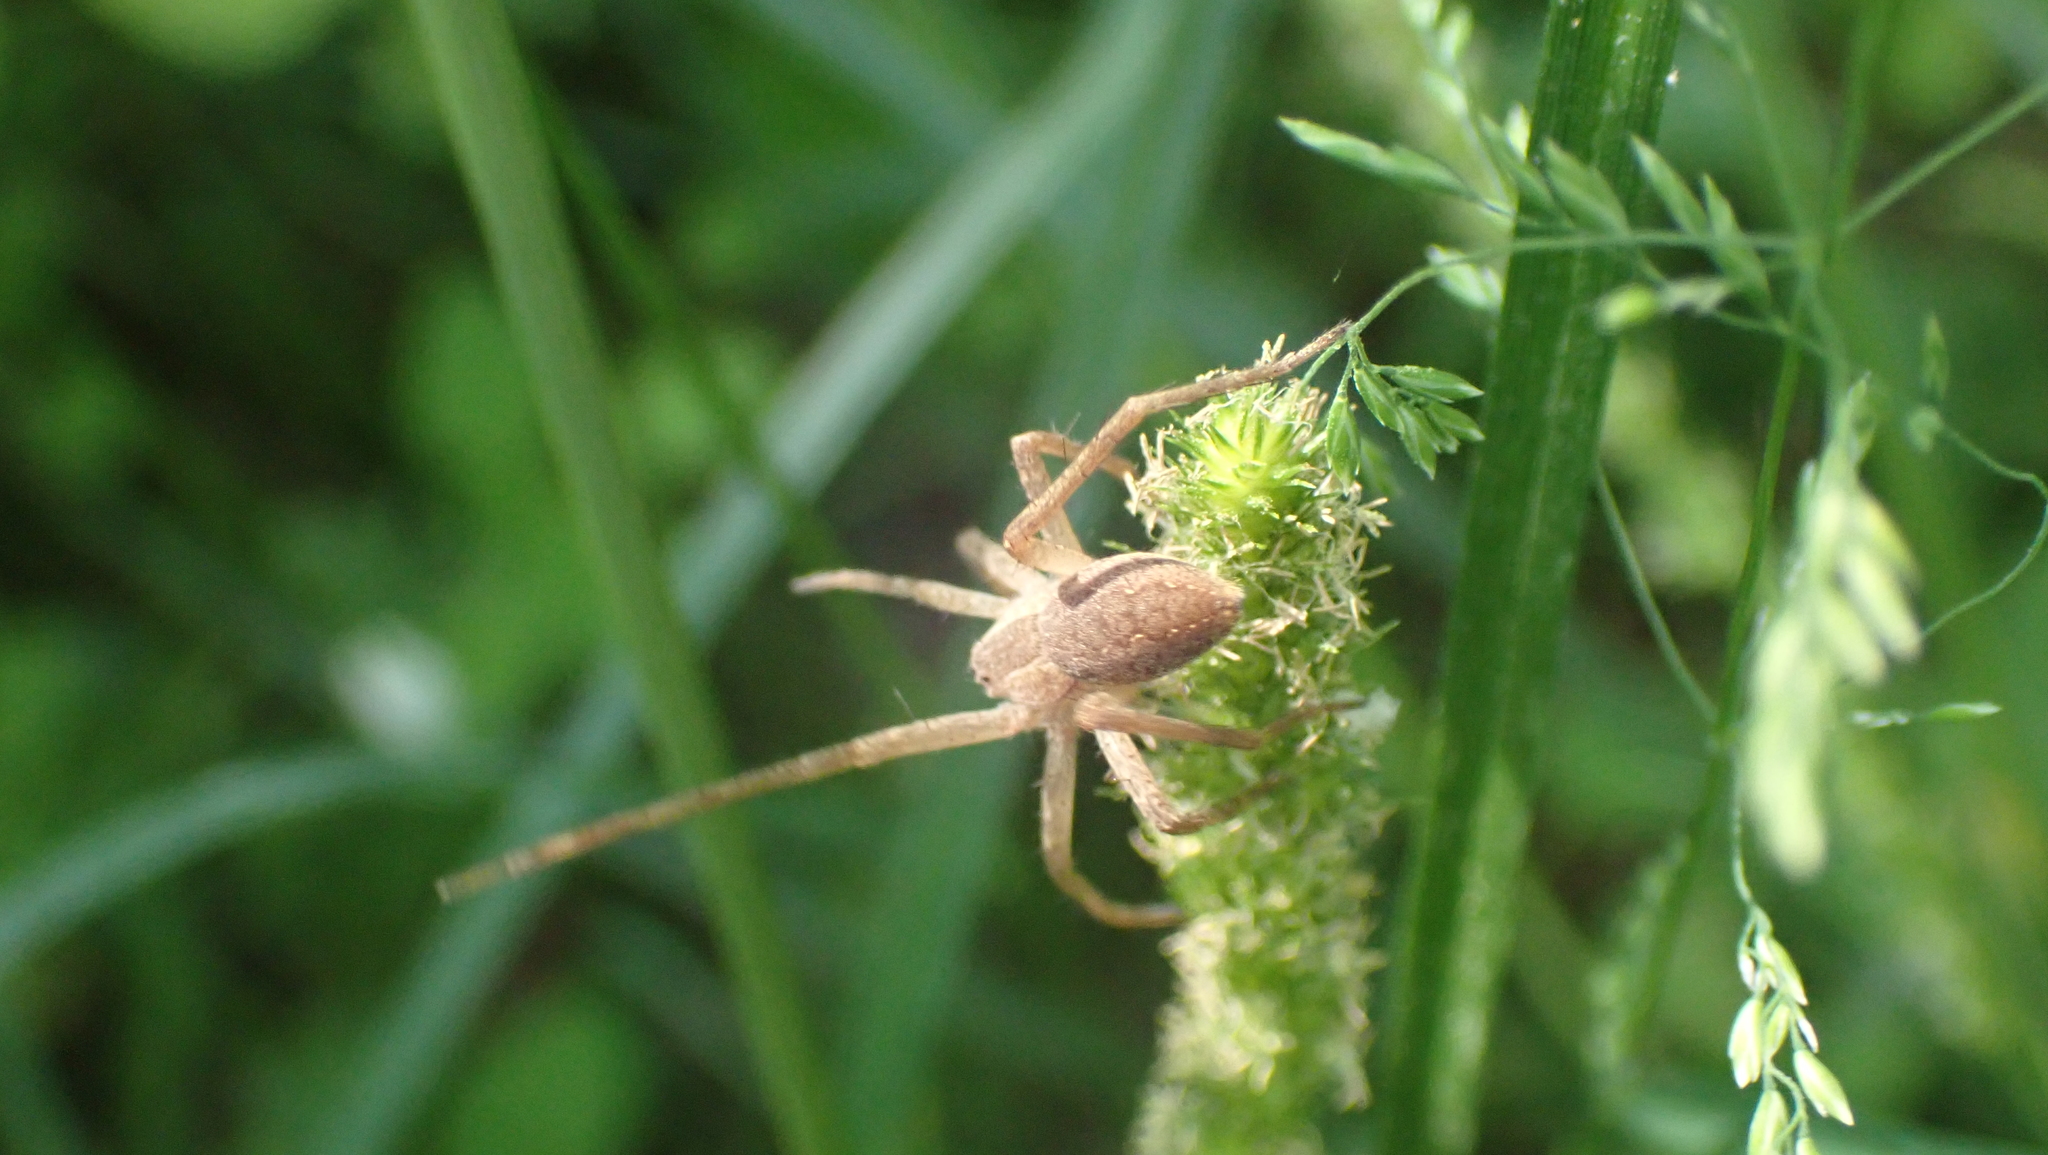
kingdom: Animalia
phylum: Arthropoda
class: Arachnida
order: Araneae
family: Pisauridae
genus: Pisaurina
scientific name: Pisaurina mira
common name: American nursery web spider
